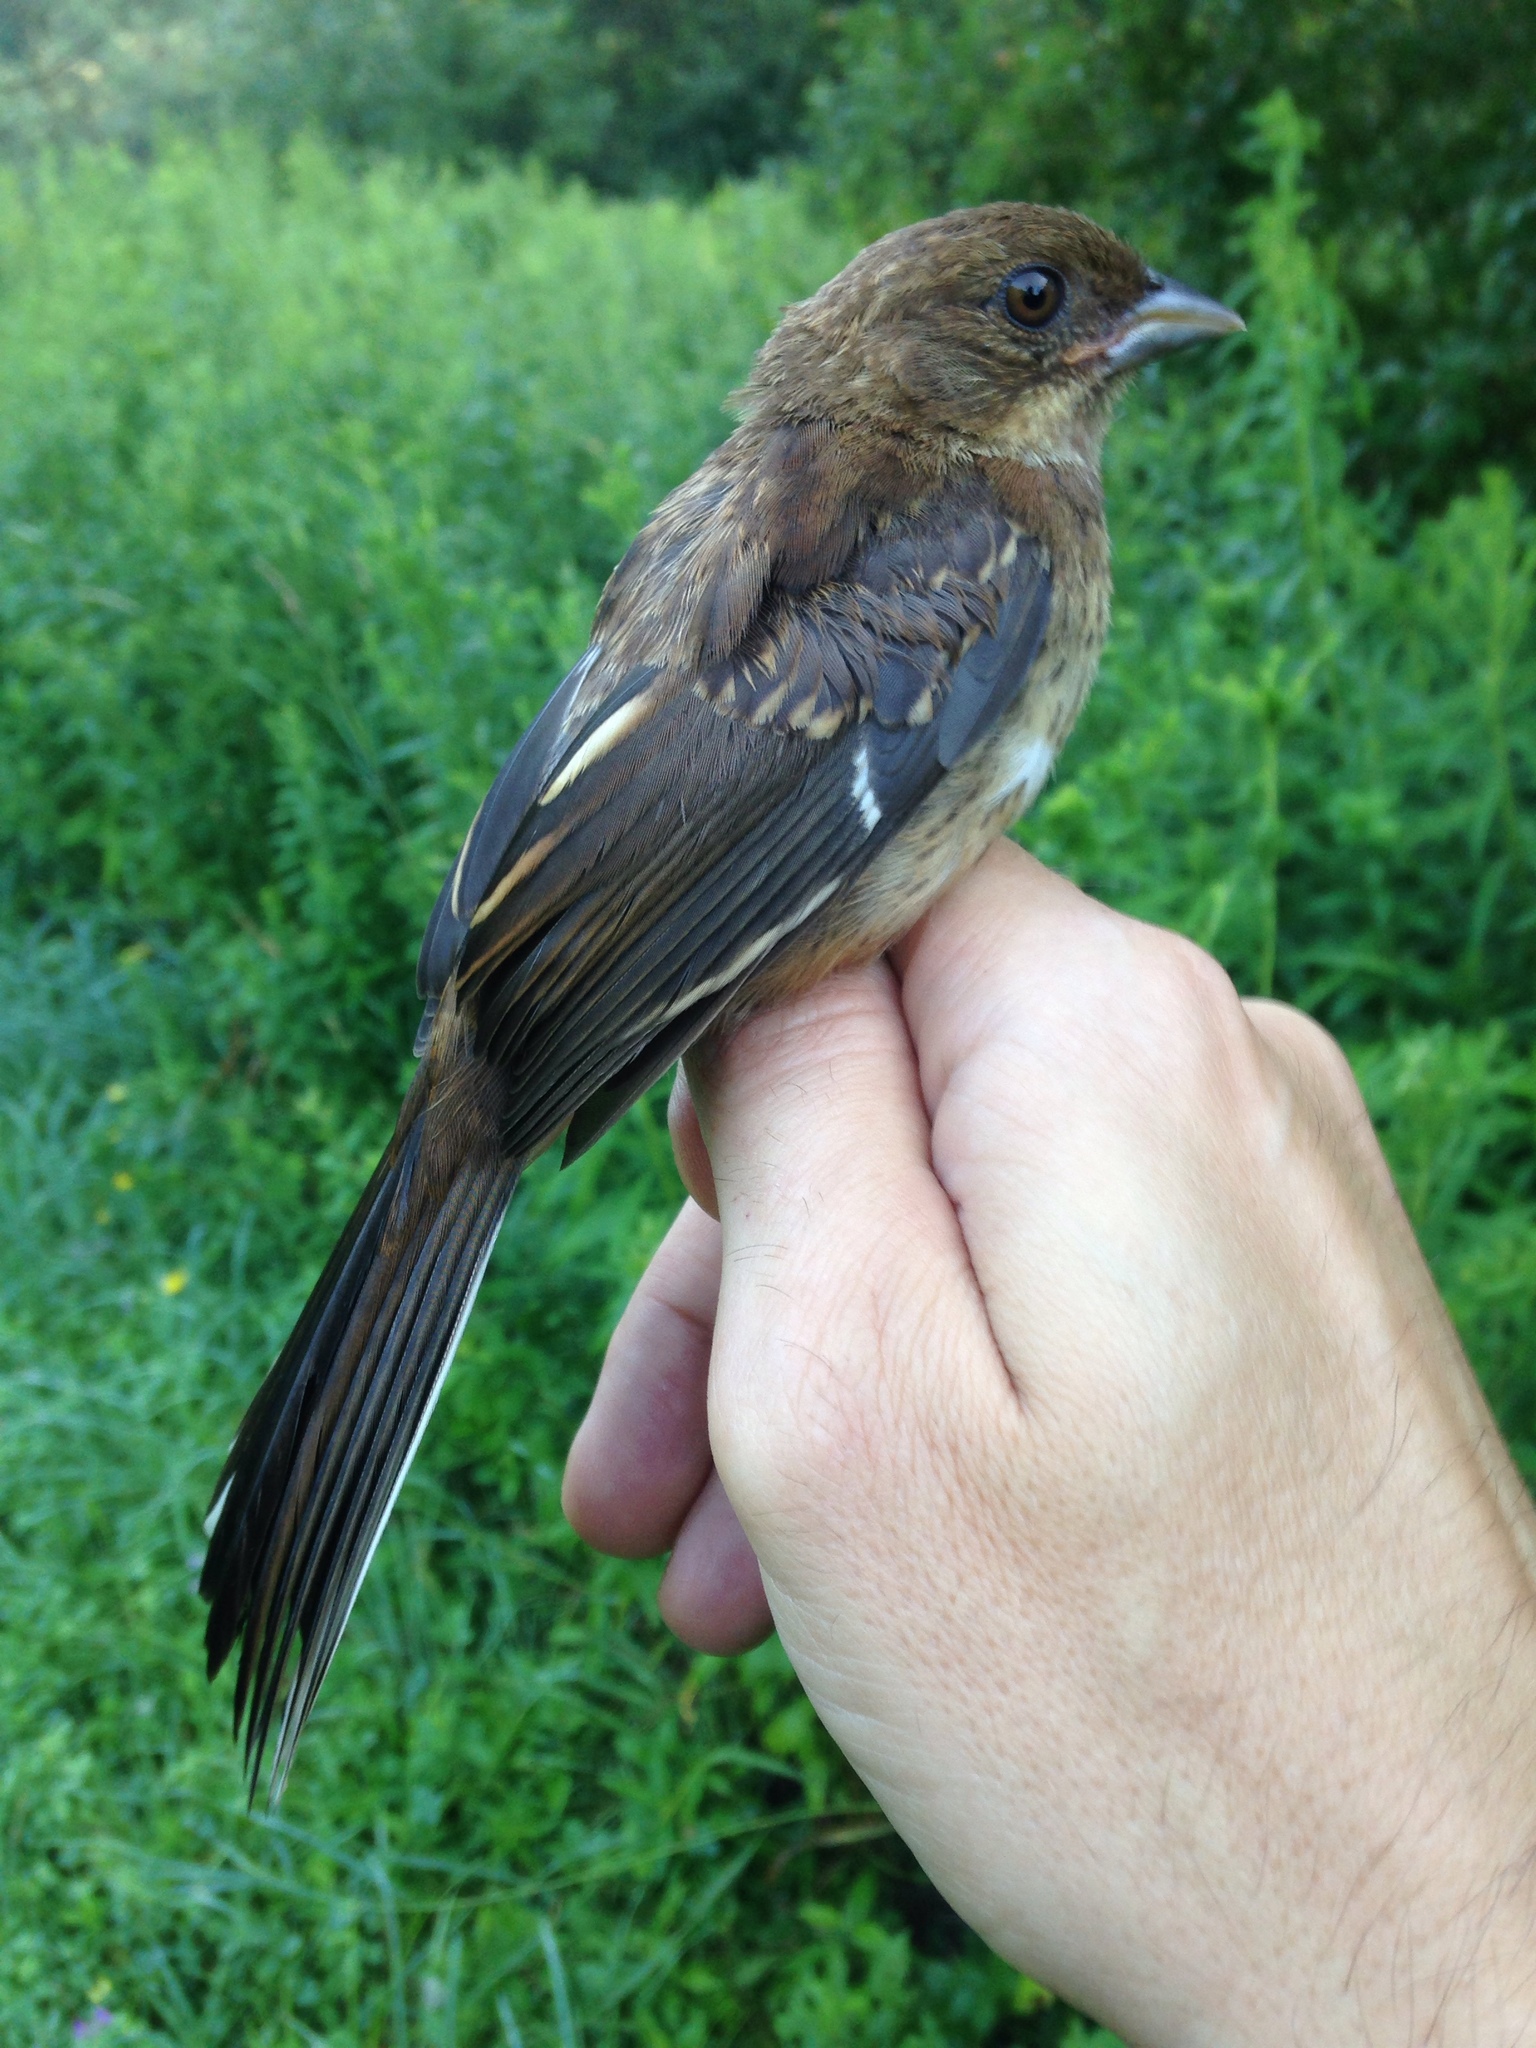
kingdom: Animalia
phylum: Chordata
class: Aves
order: Passeriformes
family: Passerellidae
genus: Pipilo
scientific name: Pipilo erythrophthalmus
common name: Eastern towhee
